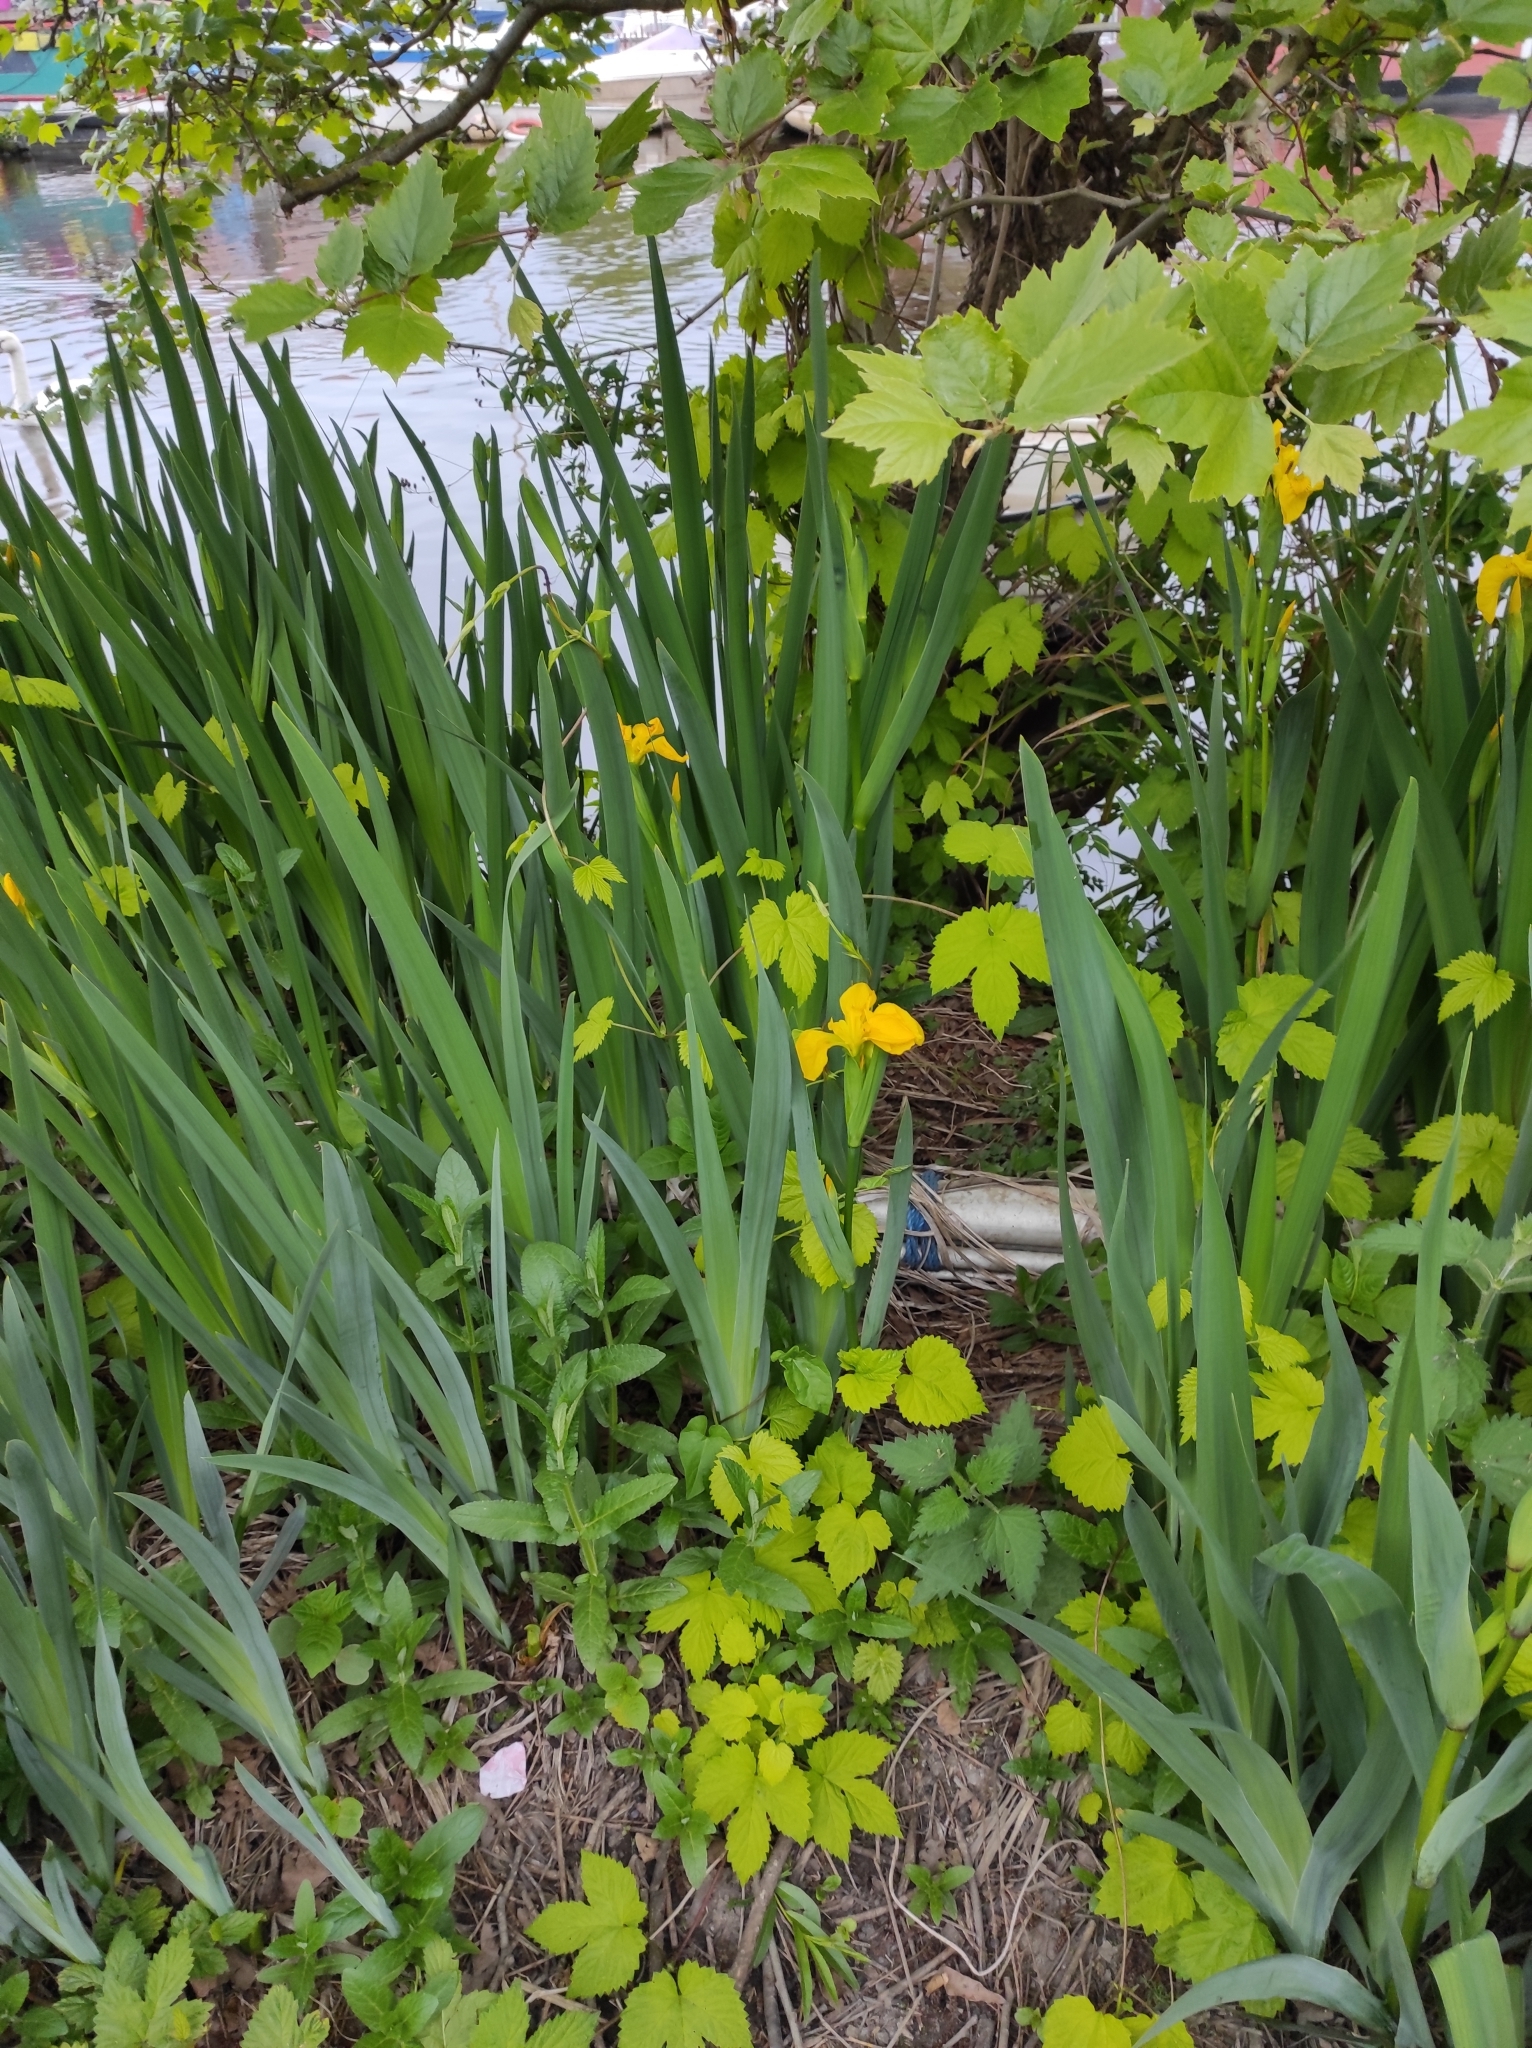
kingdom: Plantae
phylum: Tracheophyta
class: Liliopsida
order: Asparagales
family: Iridaceae
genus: Iris
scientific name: Iris pseudacorus
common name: Yellow flag
